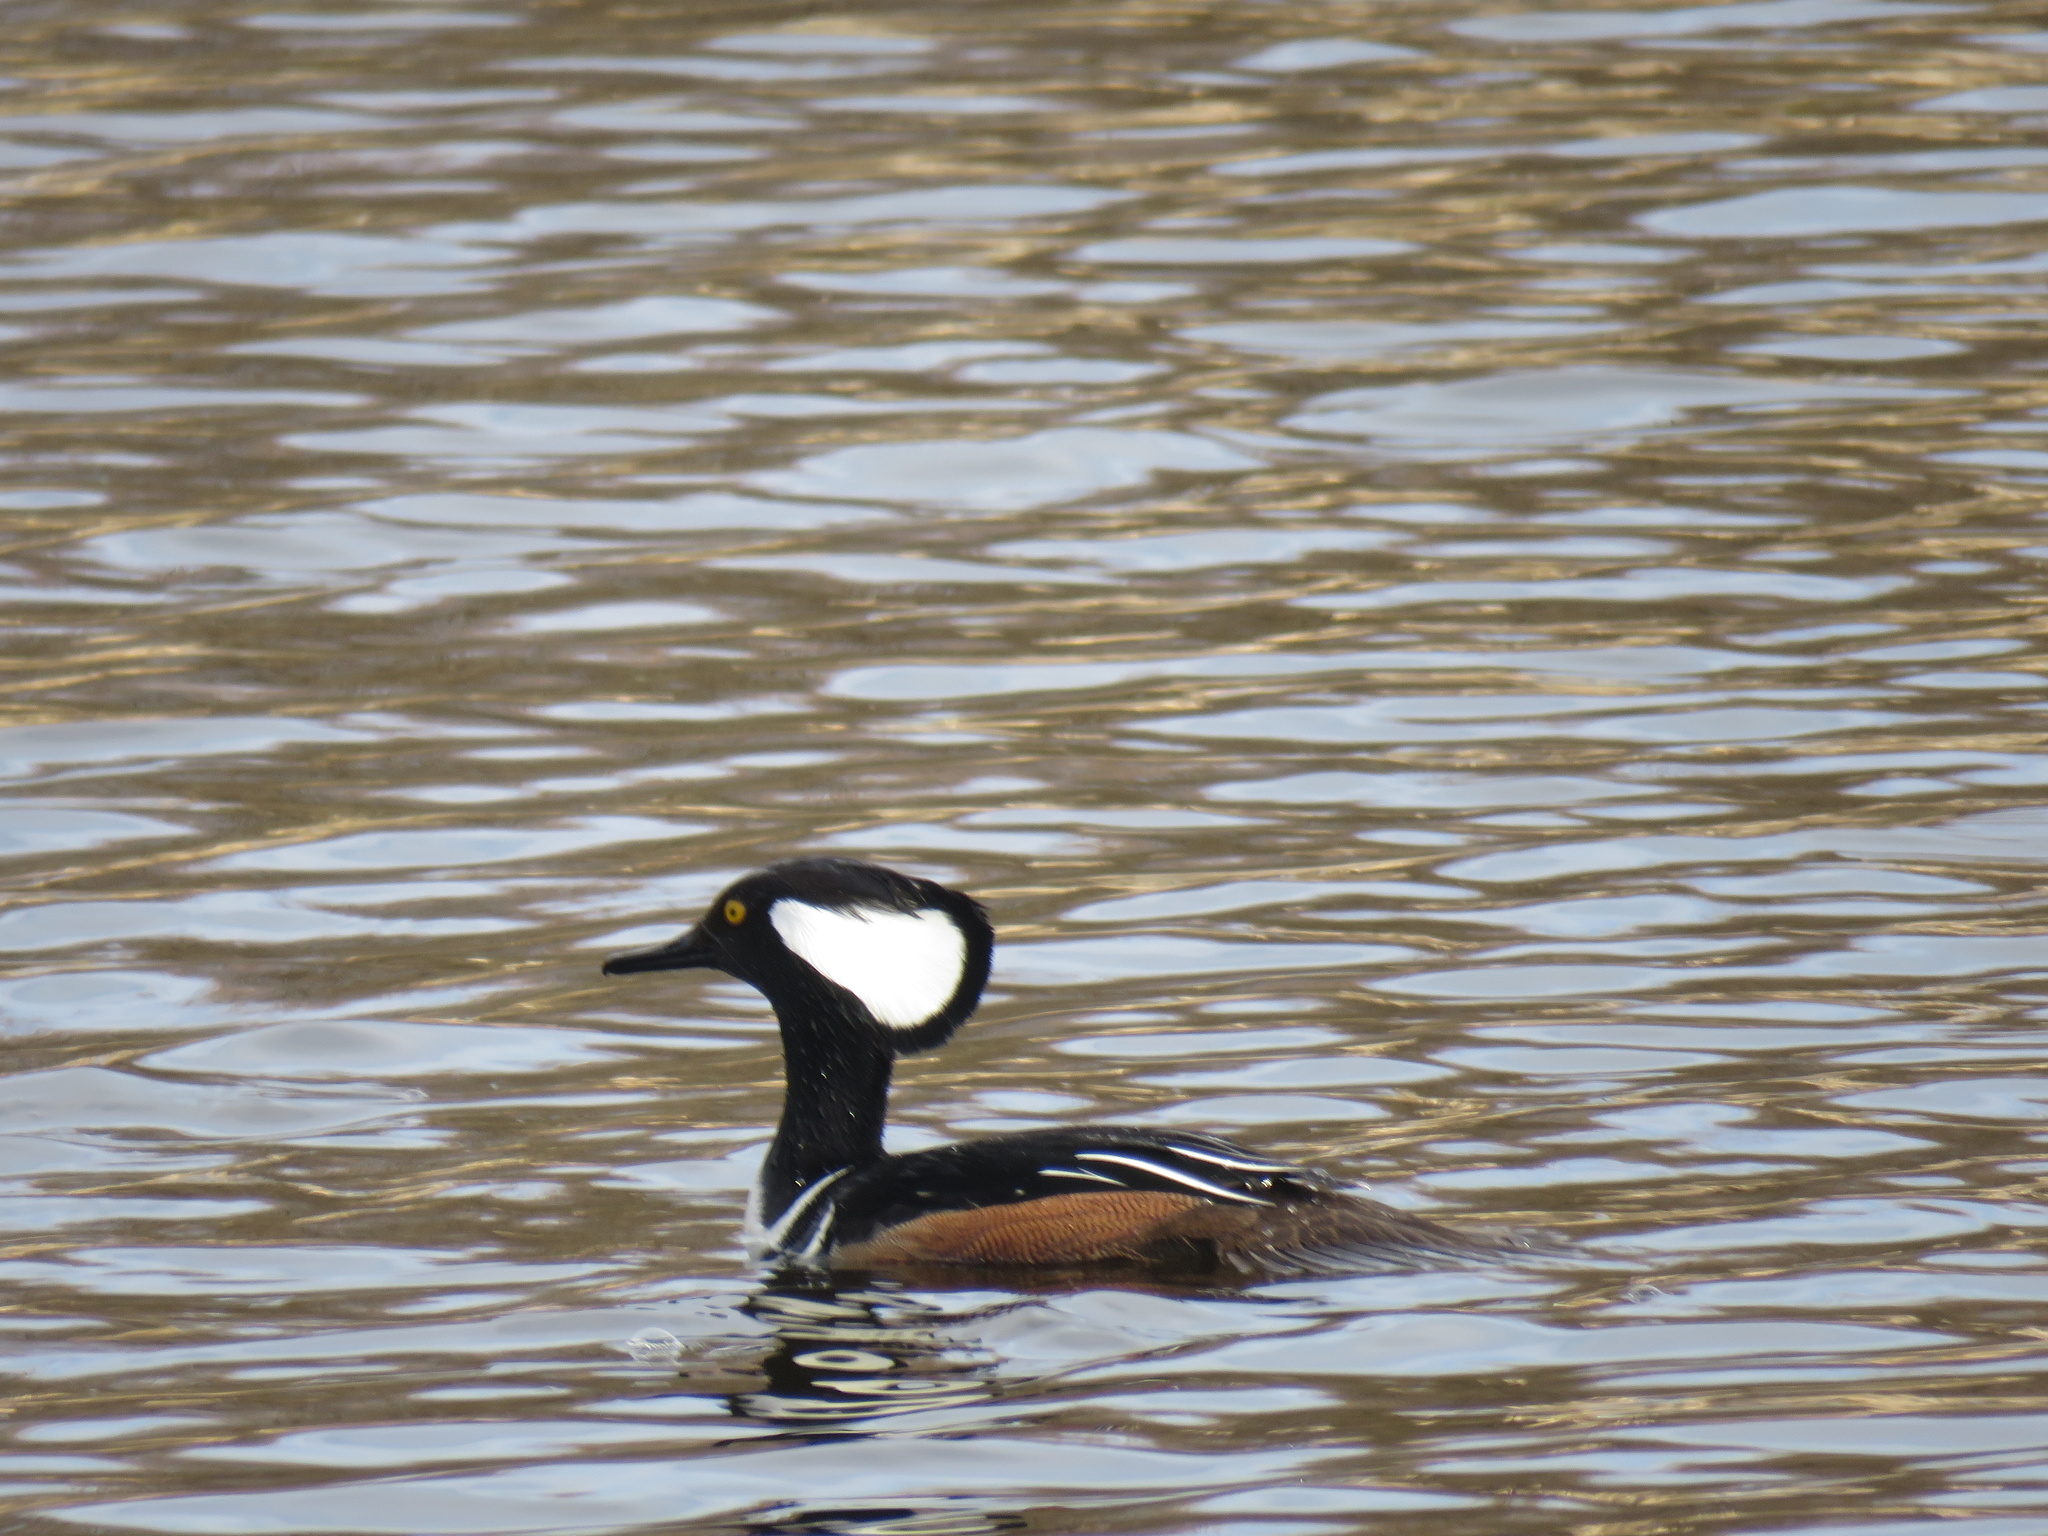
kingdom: Animalia
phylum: Chordata
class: Aves
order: Anseriformes
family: Anatidae
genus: Lophodytes
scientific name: Lophodytes cucullatus
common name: Hooded merganser
